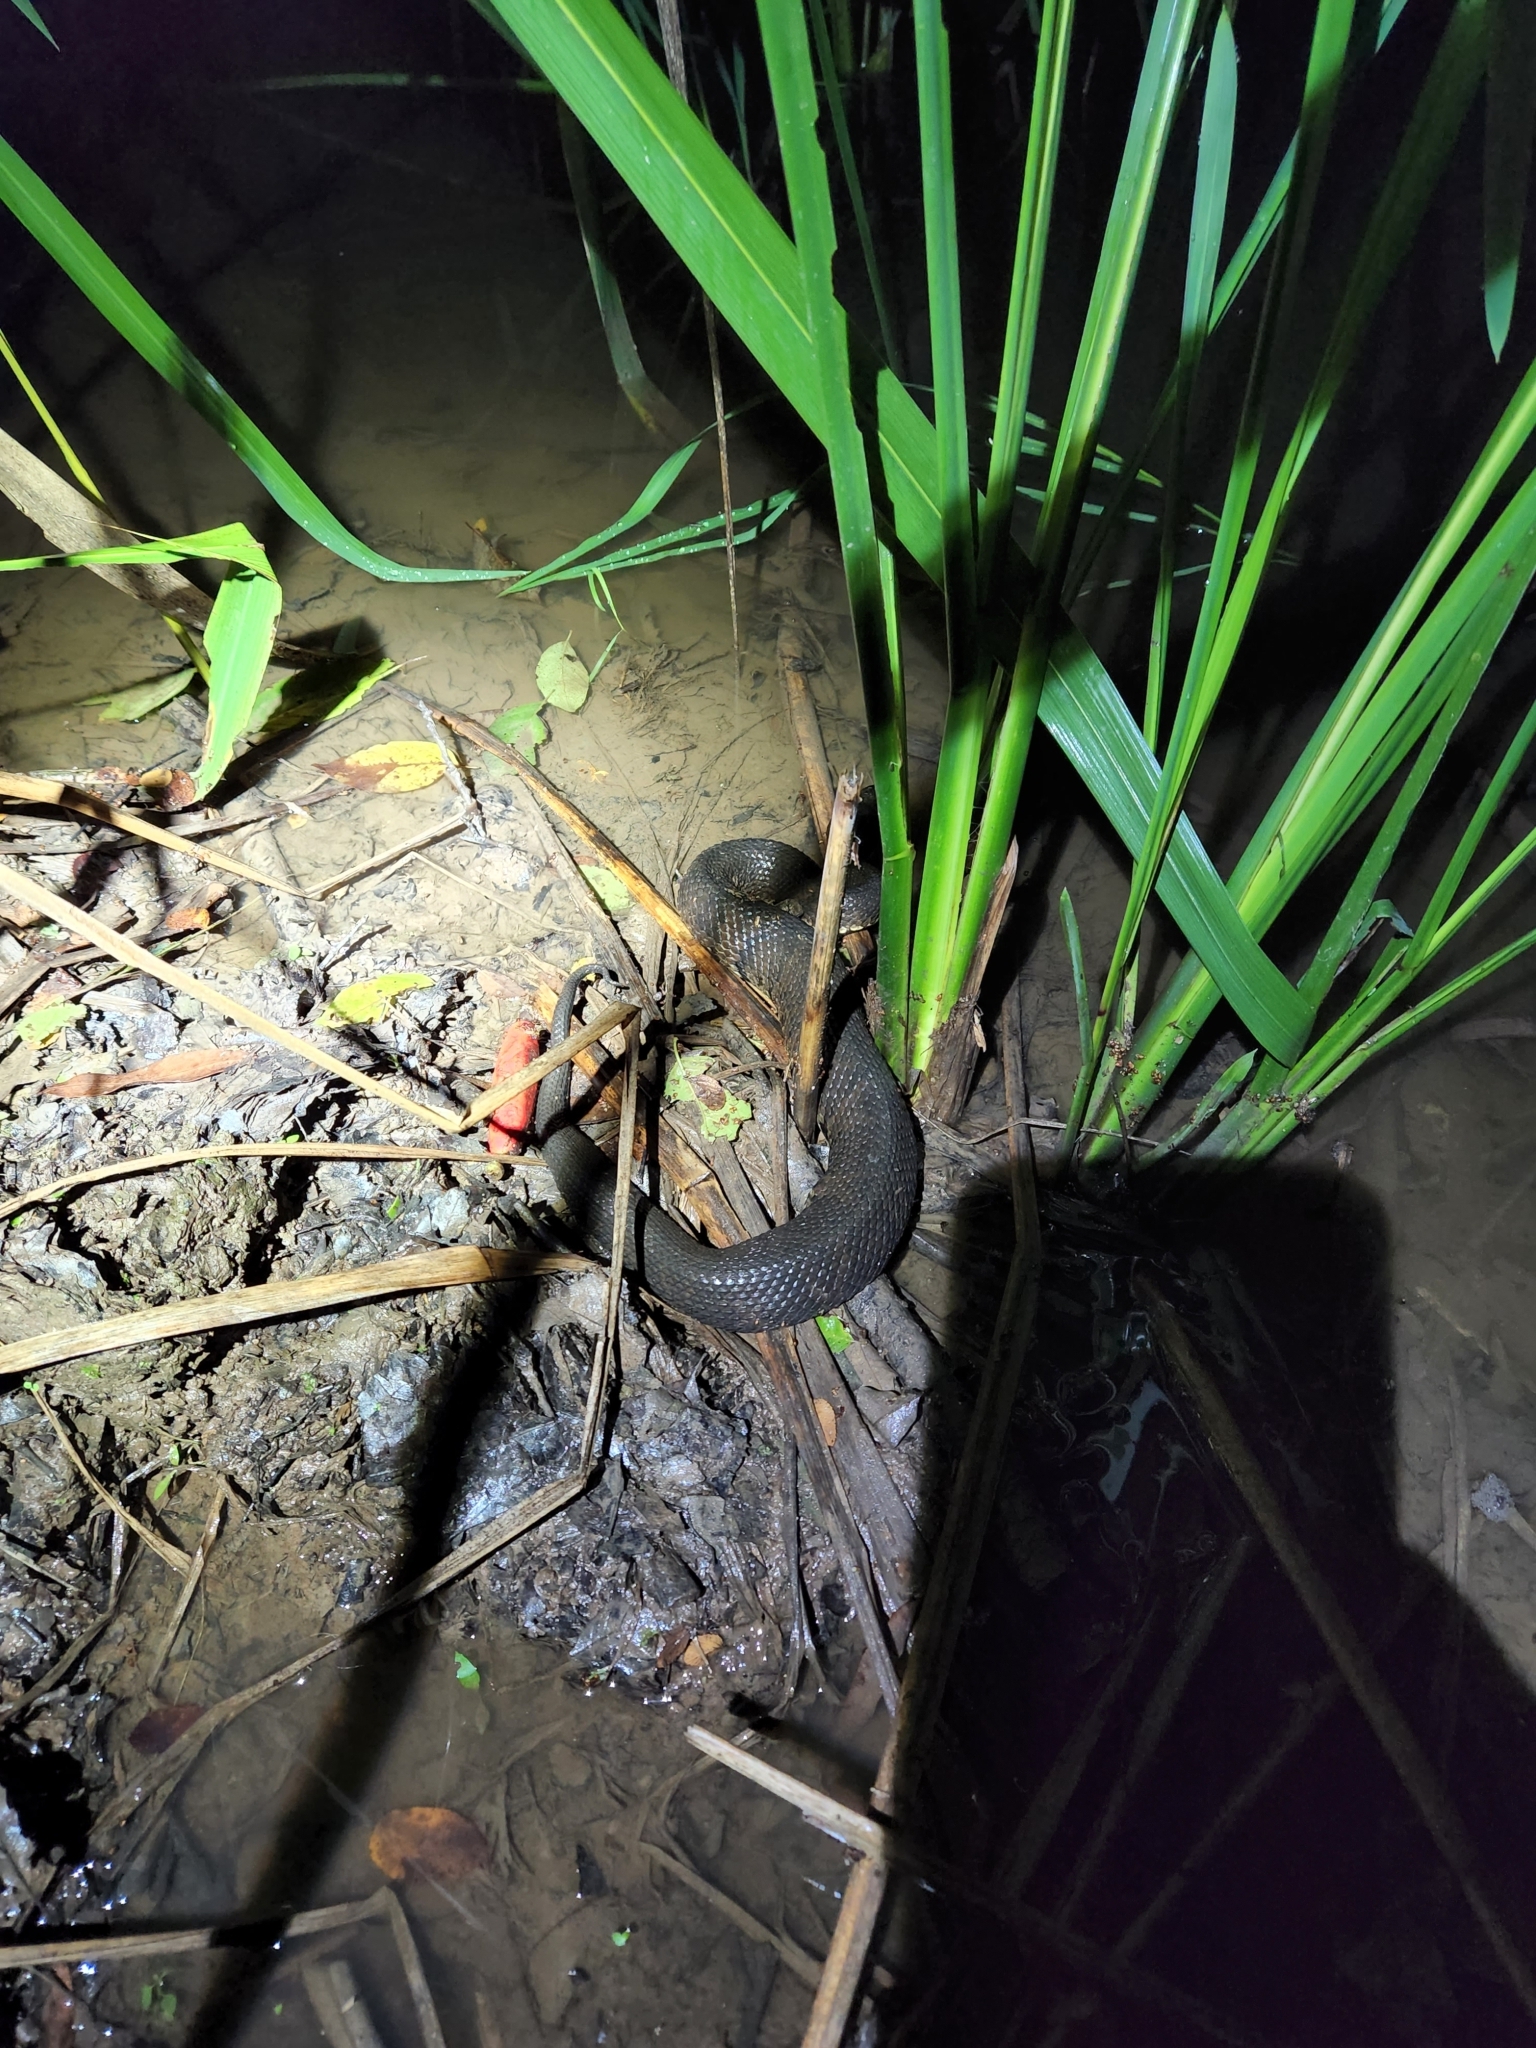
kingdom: Animalia
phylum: Chordata
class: Squamata
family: Viperidae
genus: Agkistrodon
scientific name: Agkistrodon piscivorus
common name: Cottonmouth
